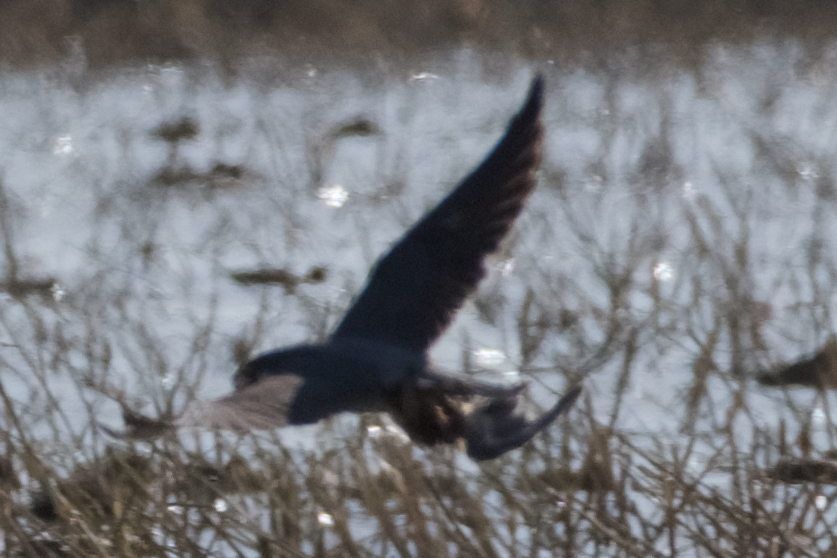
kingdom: Animalia
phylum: Chordata
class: Aves
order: Falconiformes
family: Falconidae
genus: Falco
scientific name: Falco peregrinus
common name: Peregrine falcon
